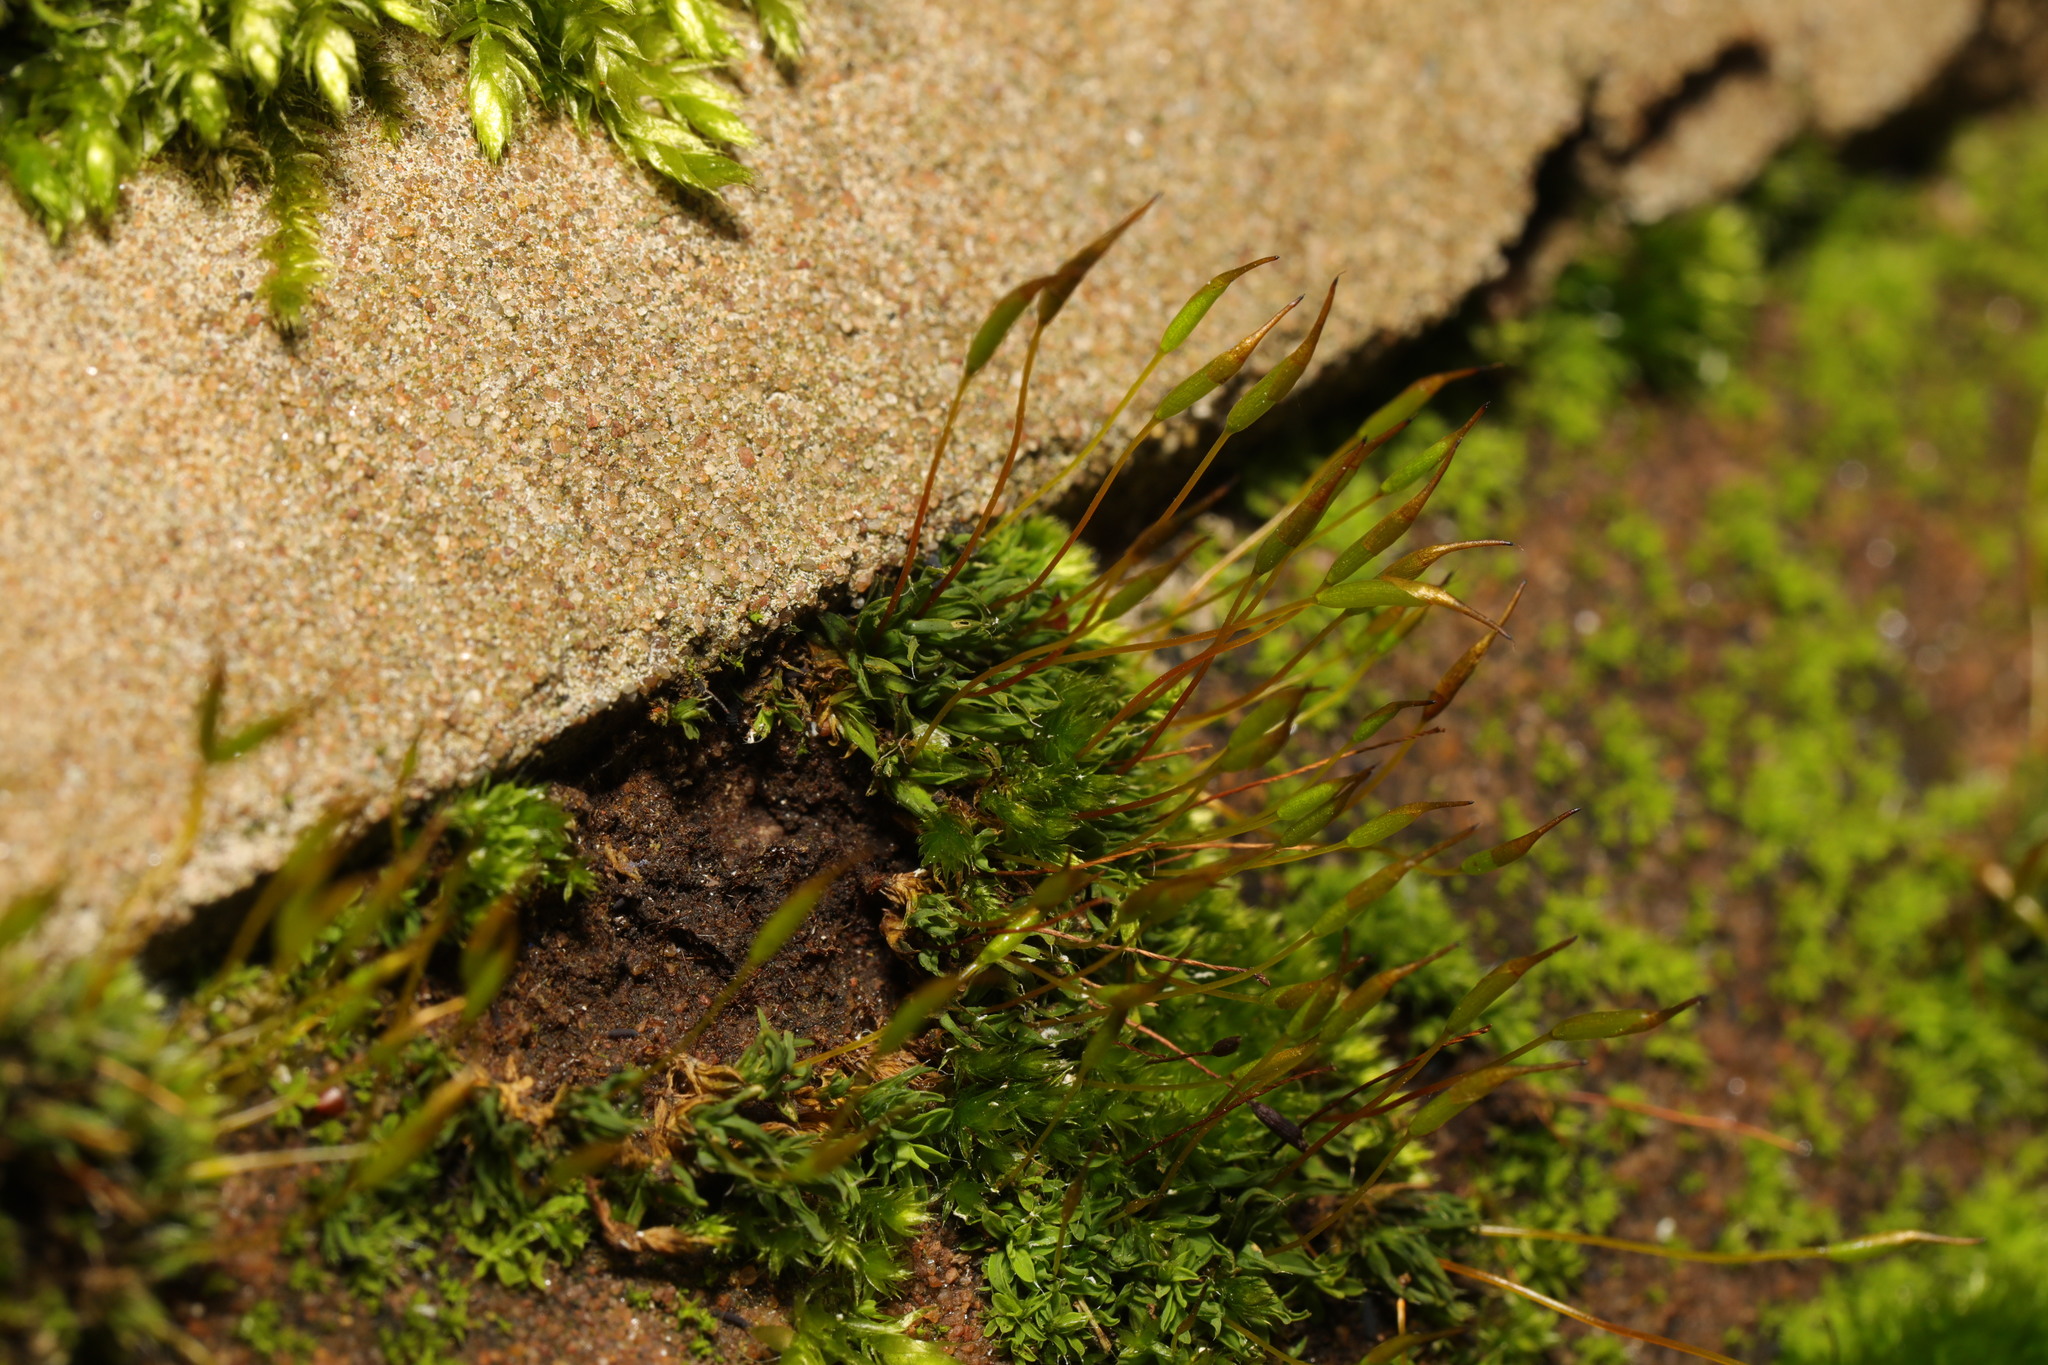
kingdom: Plantae
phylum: Bryophyta
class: Bryopsida
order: Pottiales
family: Pottiaceae
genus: Tortula
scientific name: Tortula muralis
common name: Wall screw-moss
